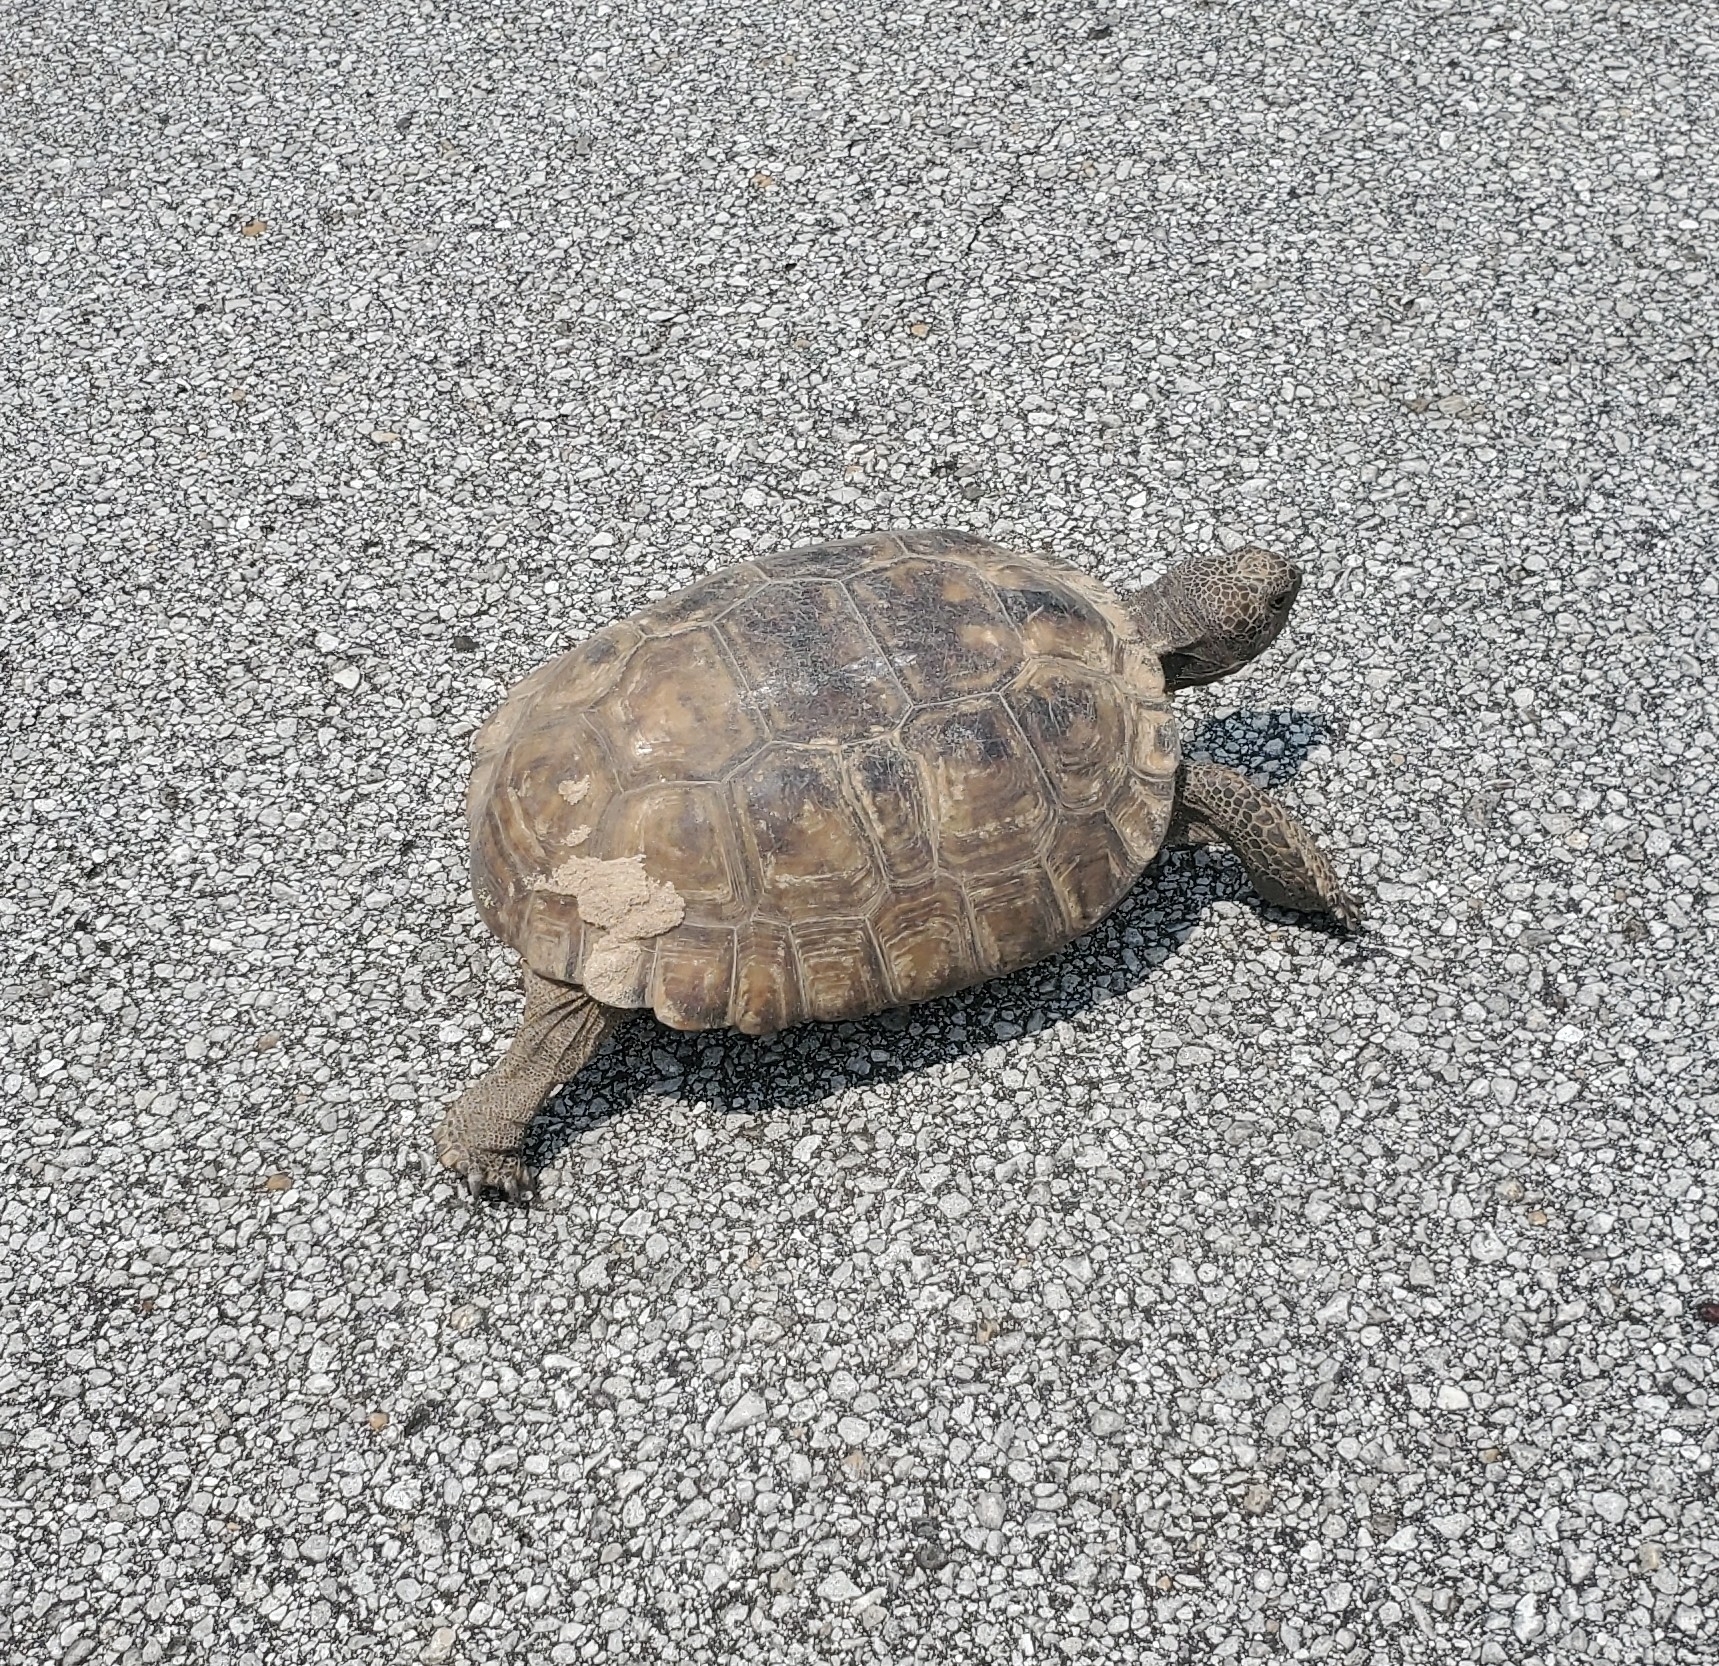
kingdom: Animalia
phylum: Chordata
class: Testudines
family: Testudinidae
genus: Gopherus
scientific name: Gopherus polyphemus
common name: Florida gopher tortoise
